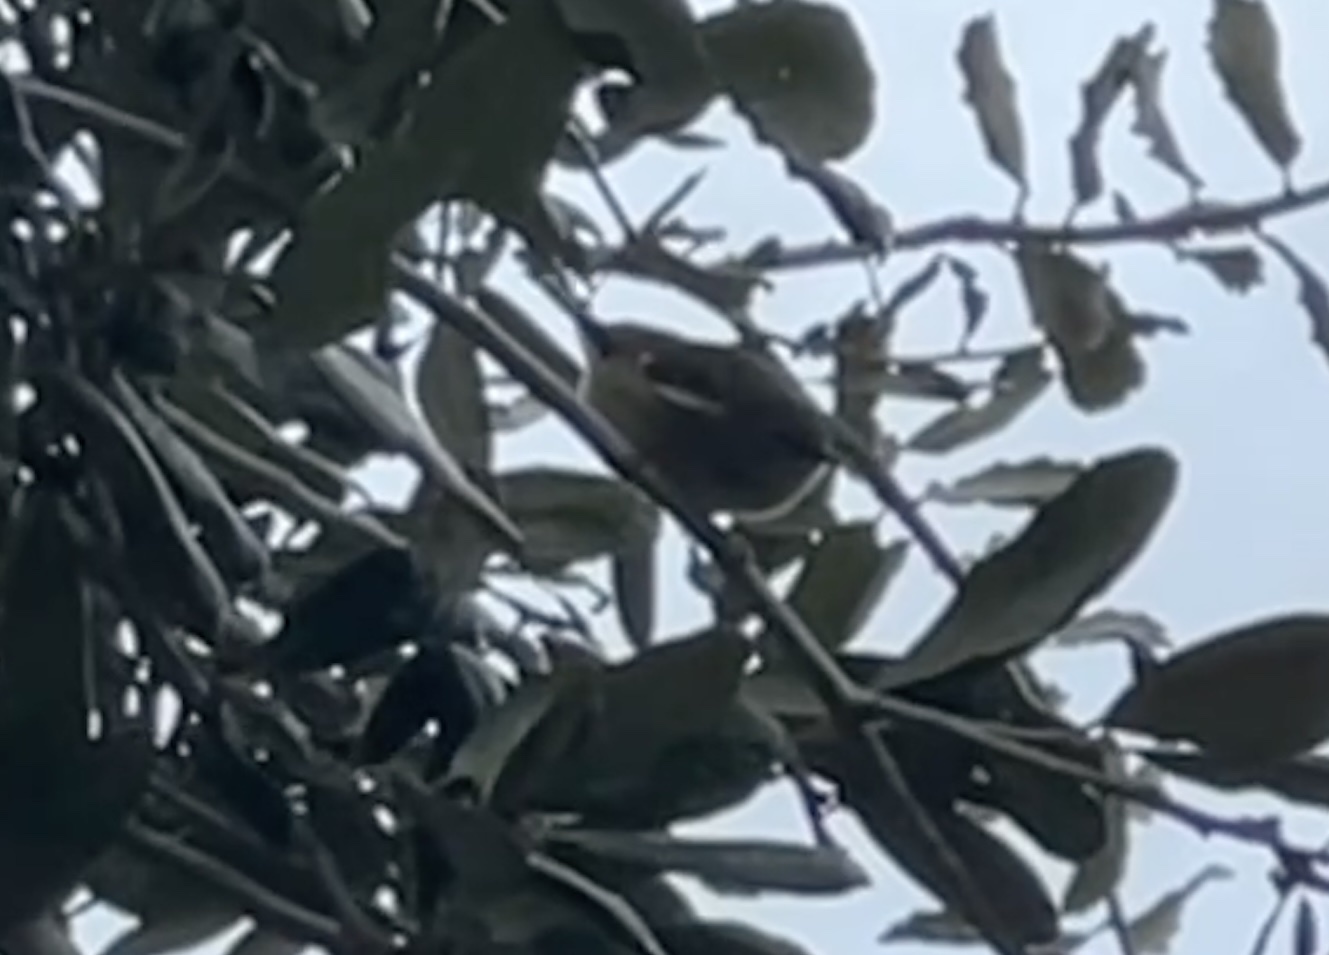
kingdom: Animalia
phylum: Chordata
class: Aves
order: Passeriformes
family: Parulidae
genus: Setophaga
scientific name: Setophaga caerulescens
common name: Black-throated blue warbler
